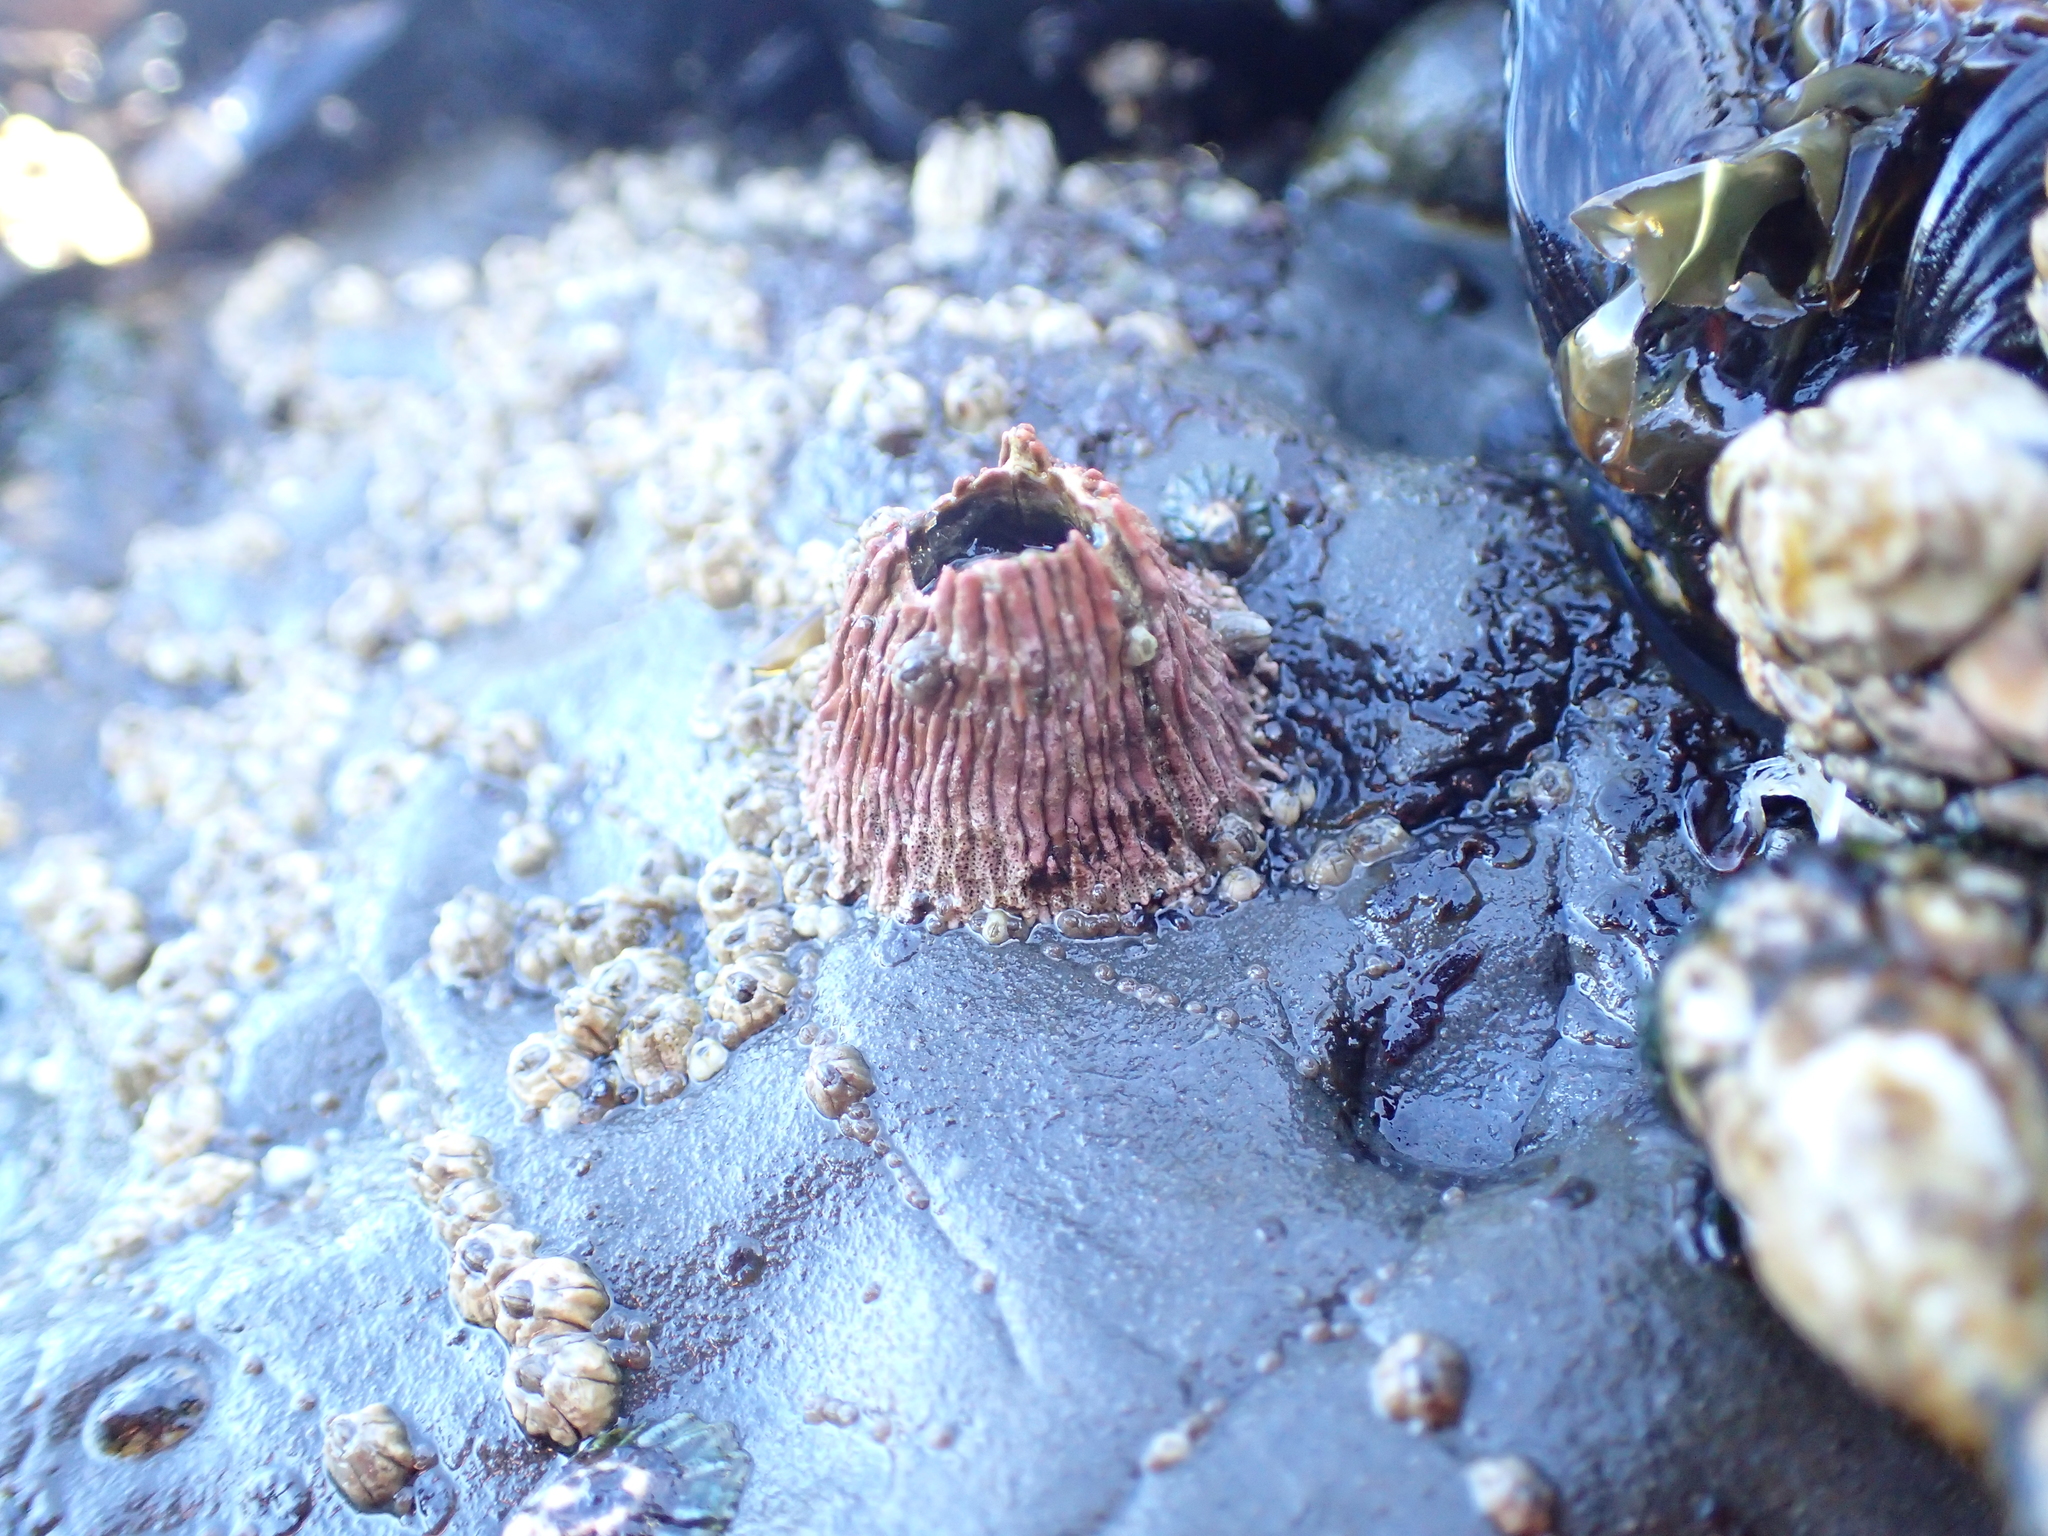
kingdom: Animalia
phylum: Arthropoda
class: Maxillopoda
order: Sessilia
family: Tetraclitidae
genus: Tetraclita
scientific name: Tetraclita rubescens
